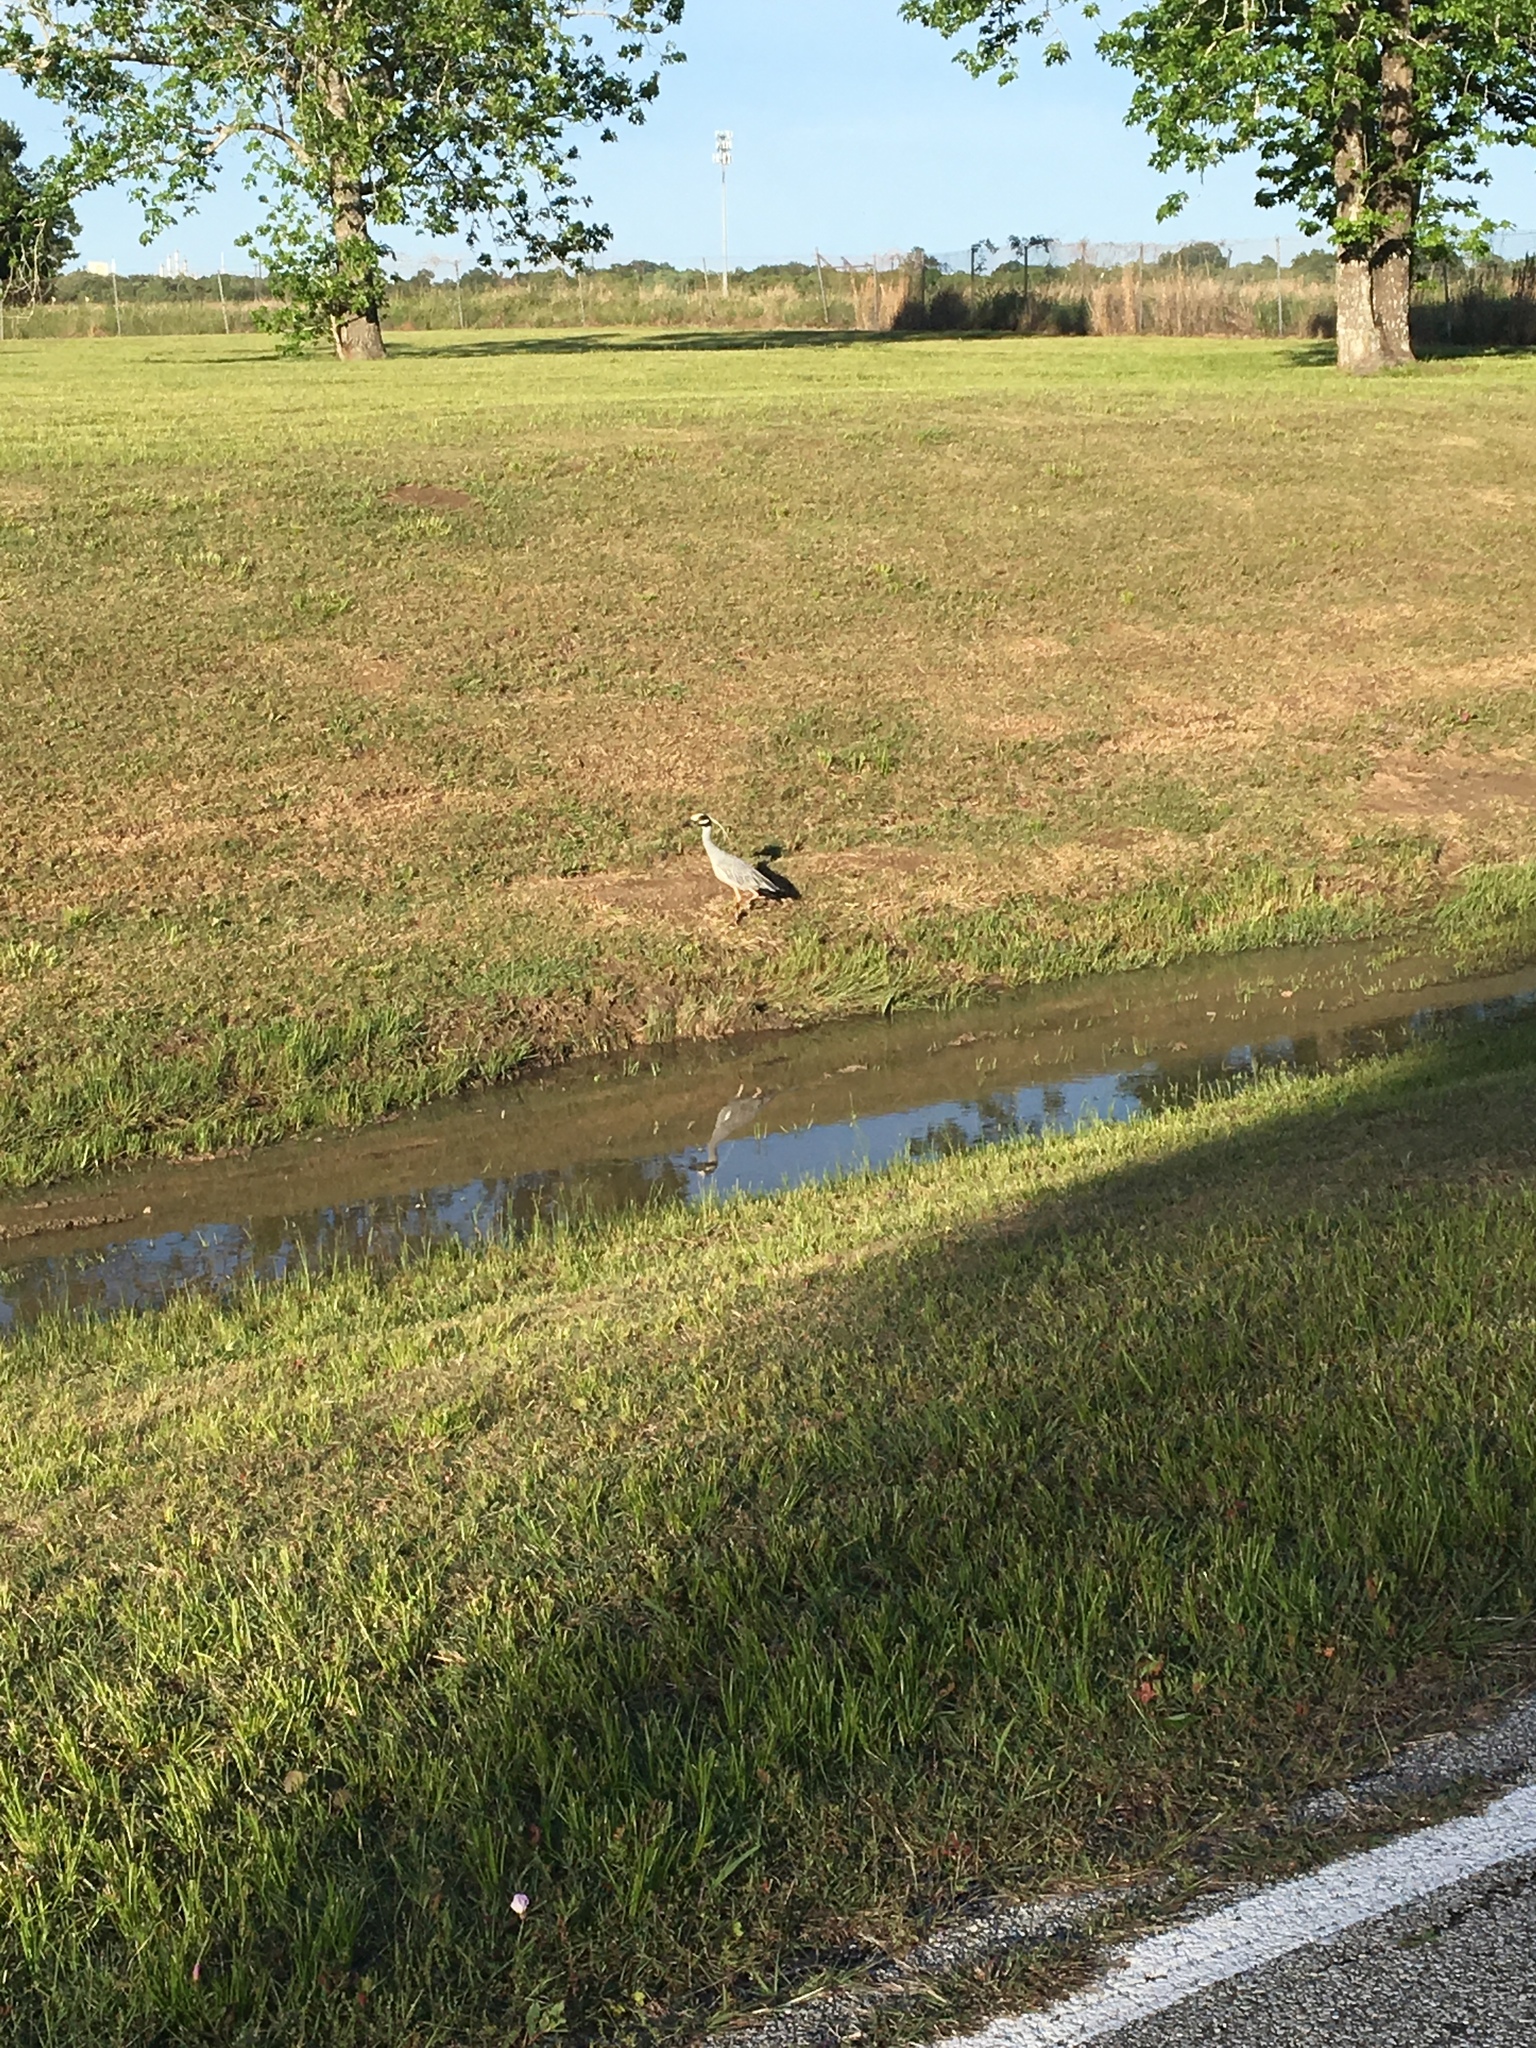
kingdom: Animalia
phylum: Chordata
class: Aves
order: Pelecaniformes
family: Ardeidae
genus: Nyctanassa
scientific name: Nyctanassa violacea
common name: Yellow-crowned night heron
